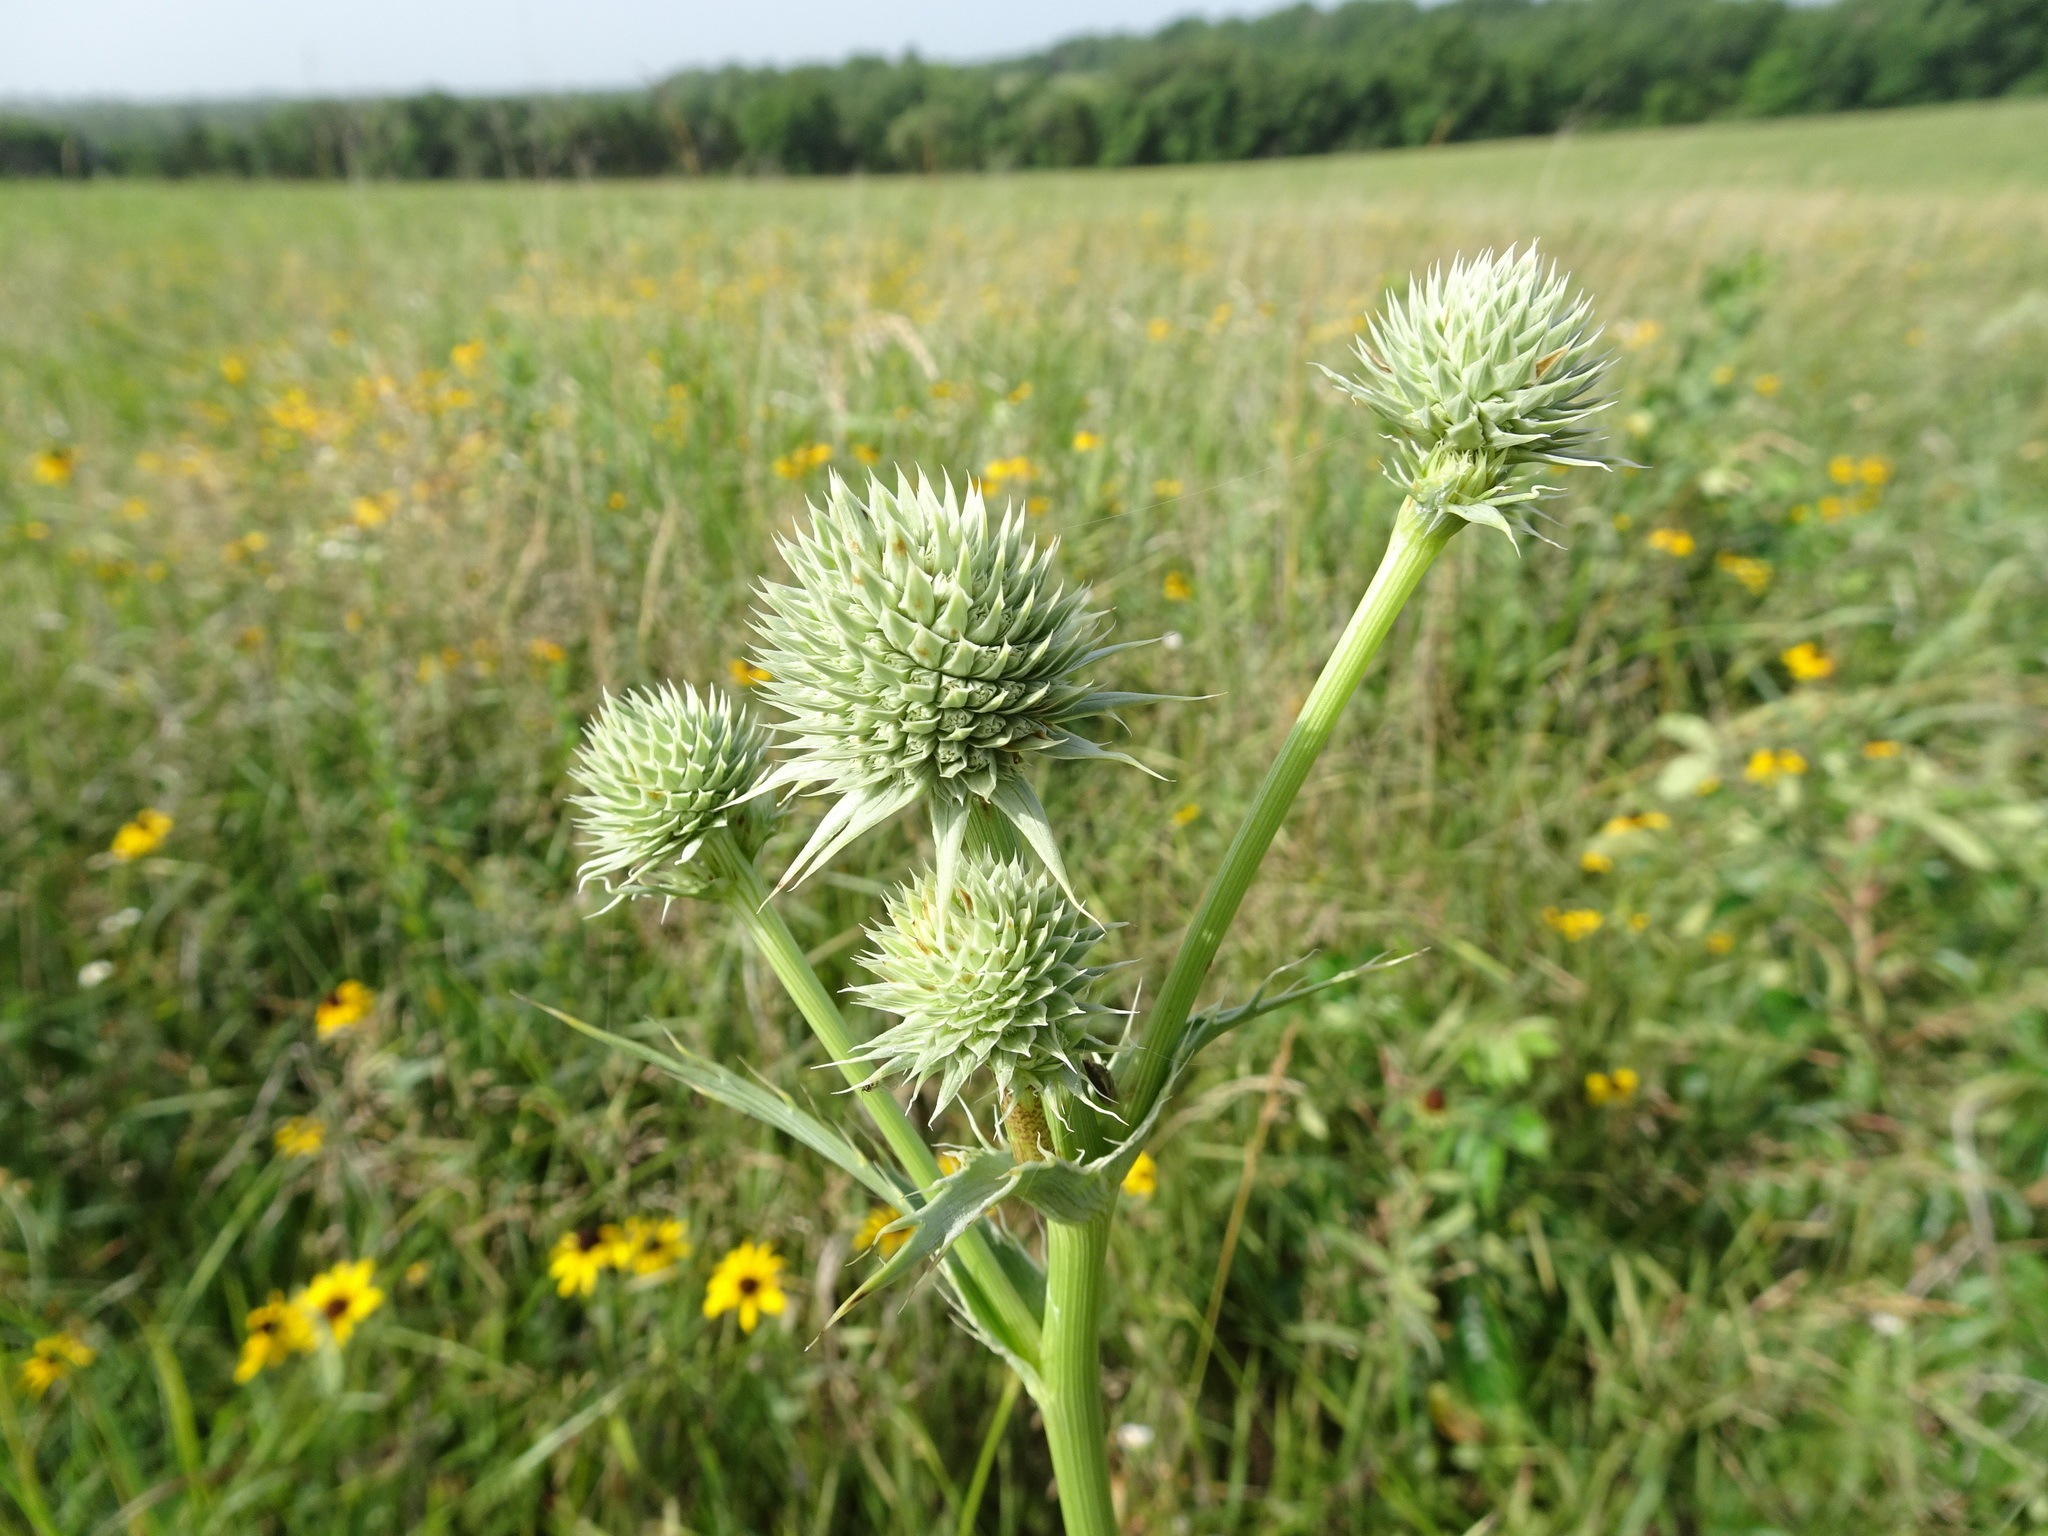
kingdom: Plantae
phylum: Tracheophyta
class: Magnoliopsida
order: Apiales
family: Apiaceae
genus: Eryngium
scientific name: Eryngium yuccifolium
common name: Button eryngo
